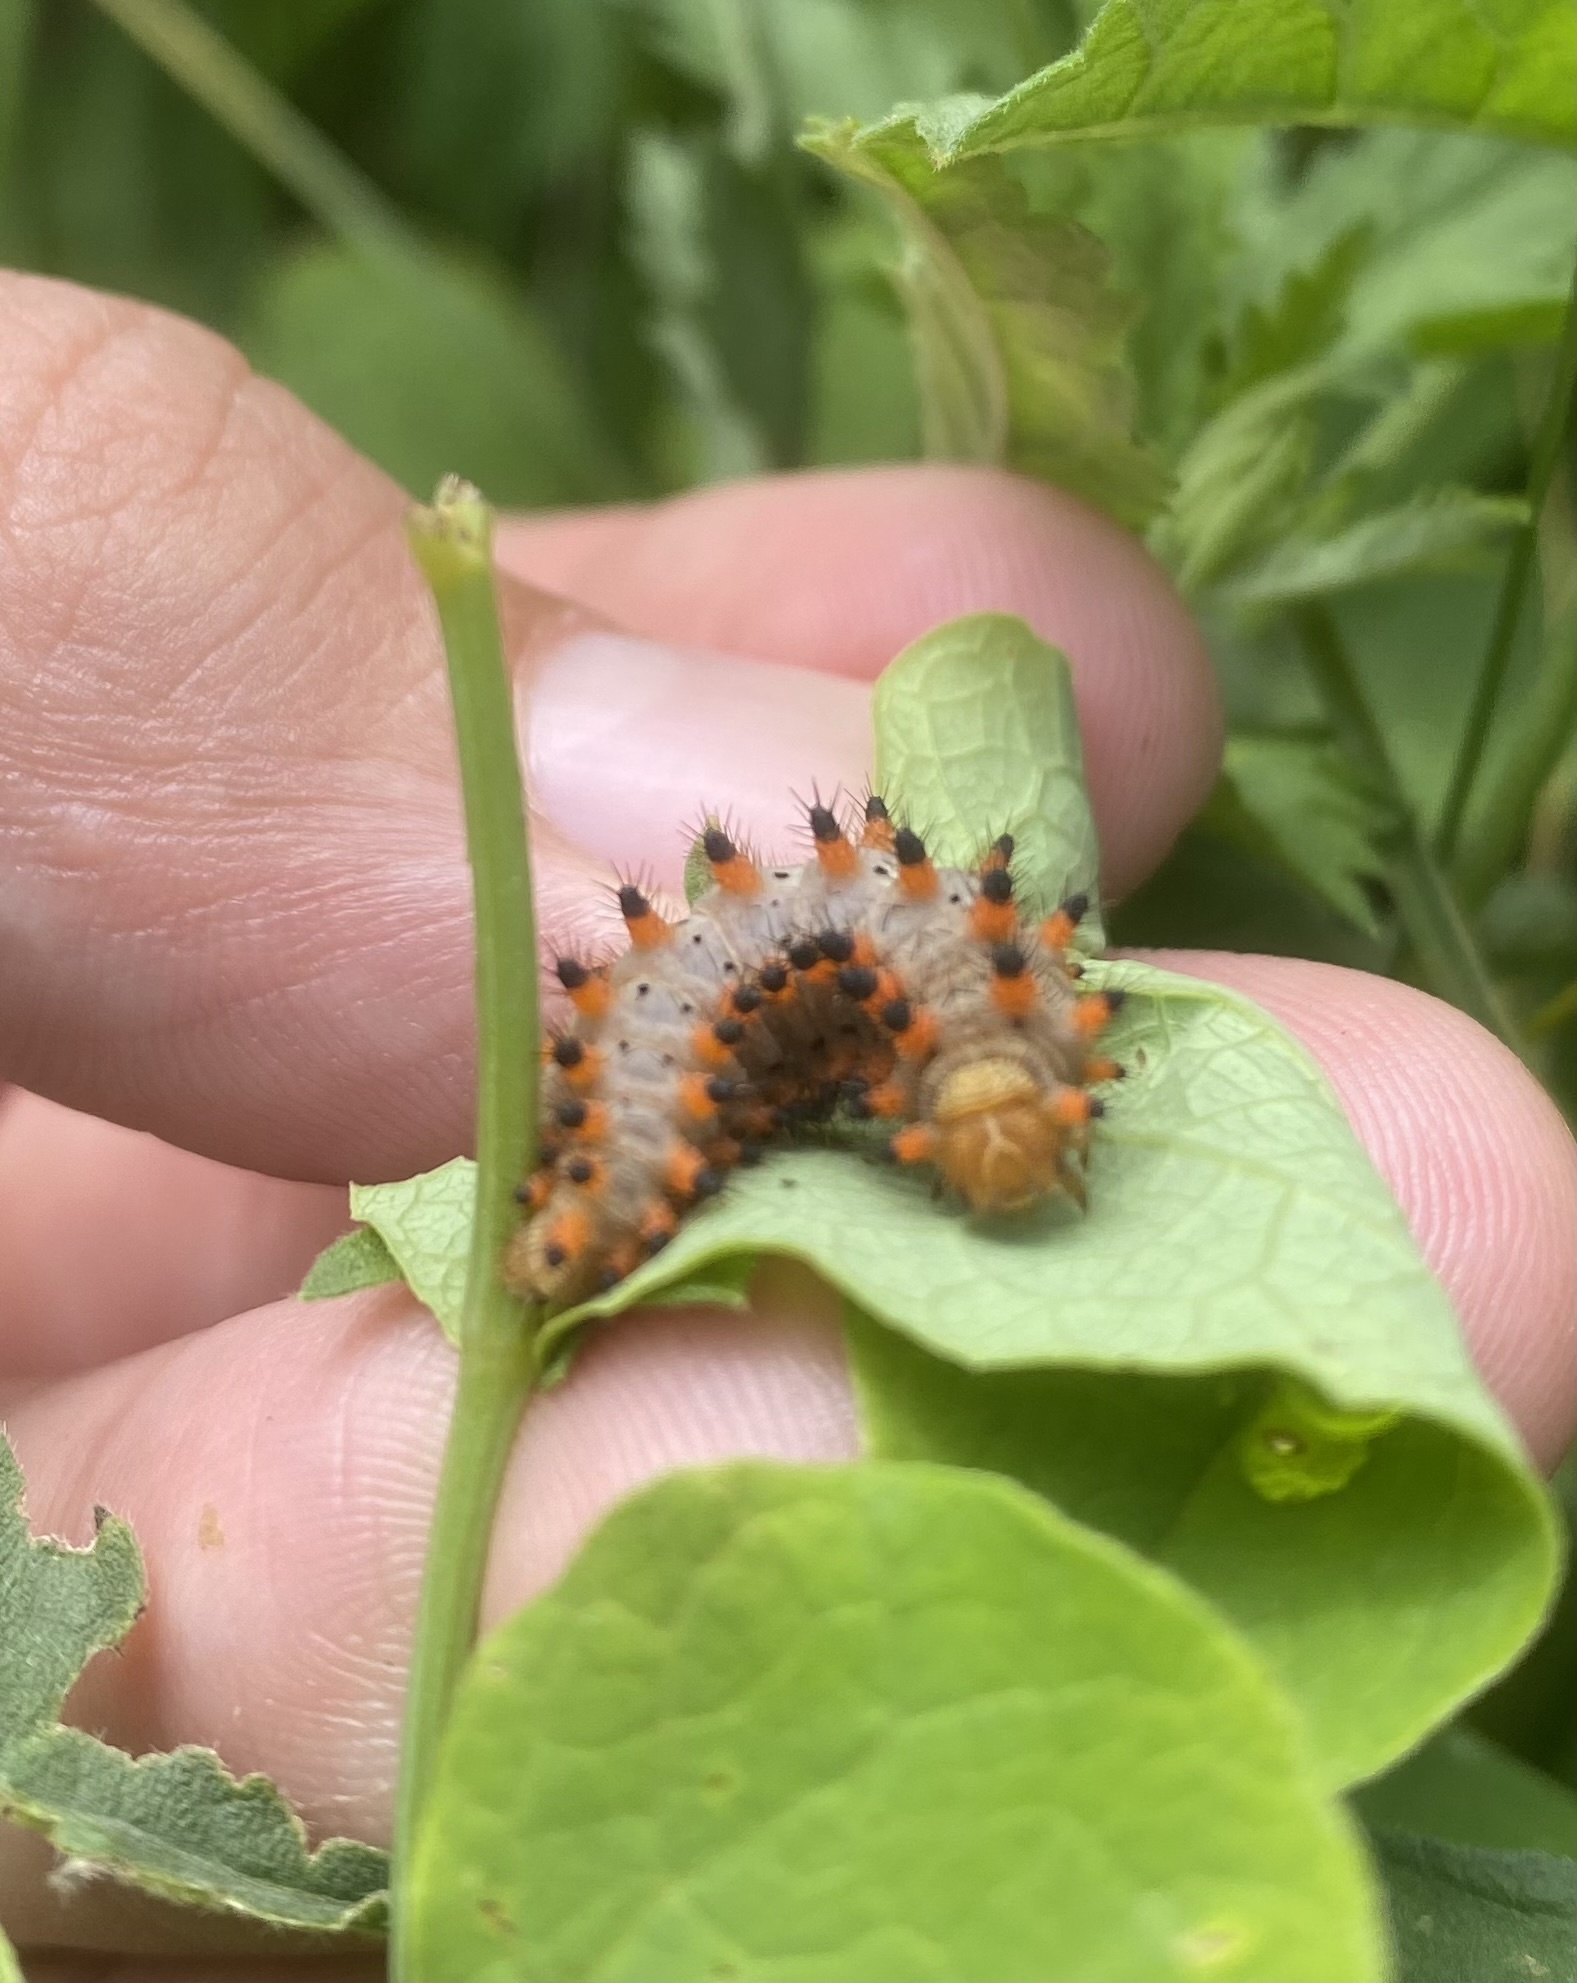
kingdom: Animalia
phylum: Arthropoda
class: Insecta
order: Lepidoptera
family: Papilionidae
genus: Zerynthia
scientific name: Zerynthia polyxena
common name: Southern festoon
